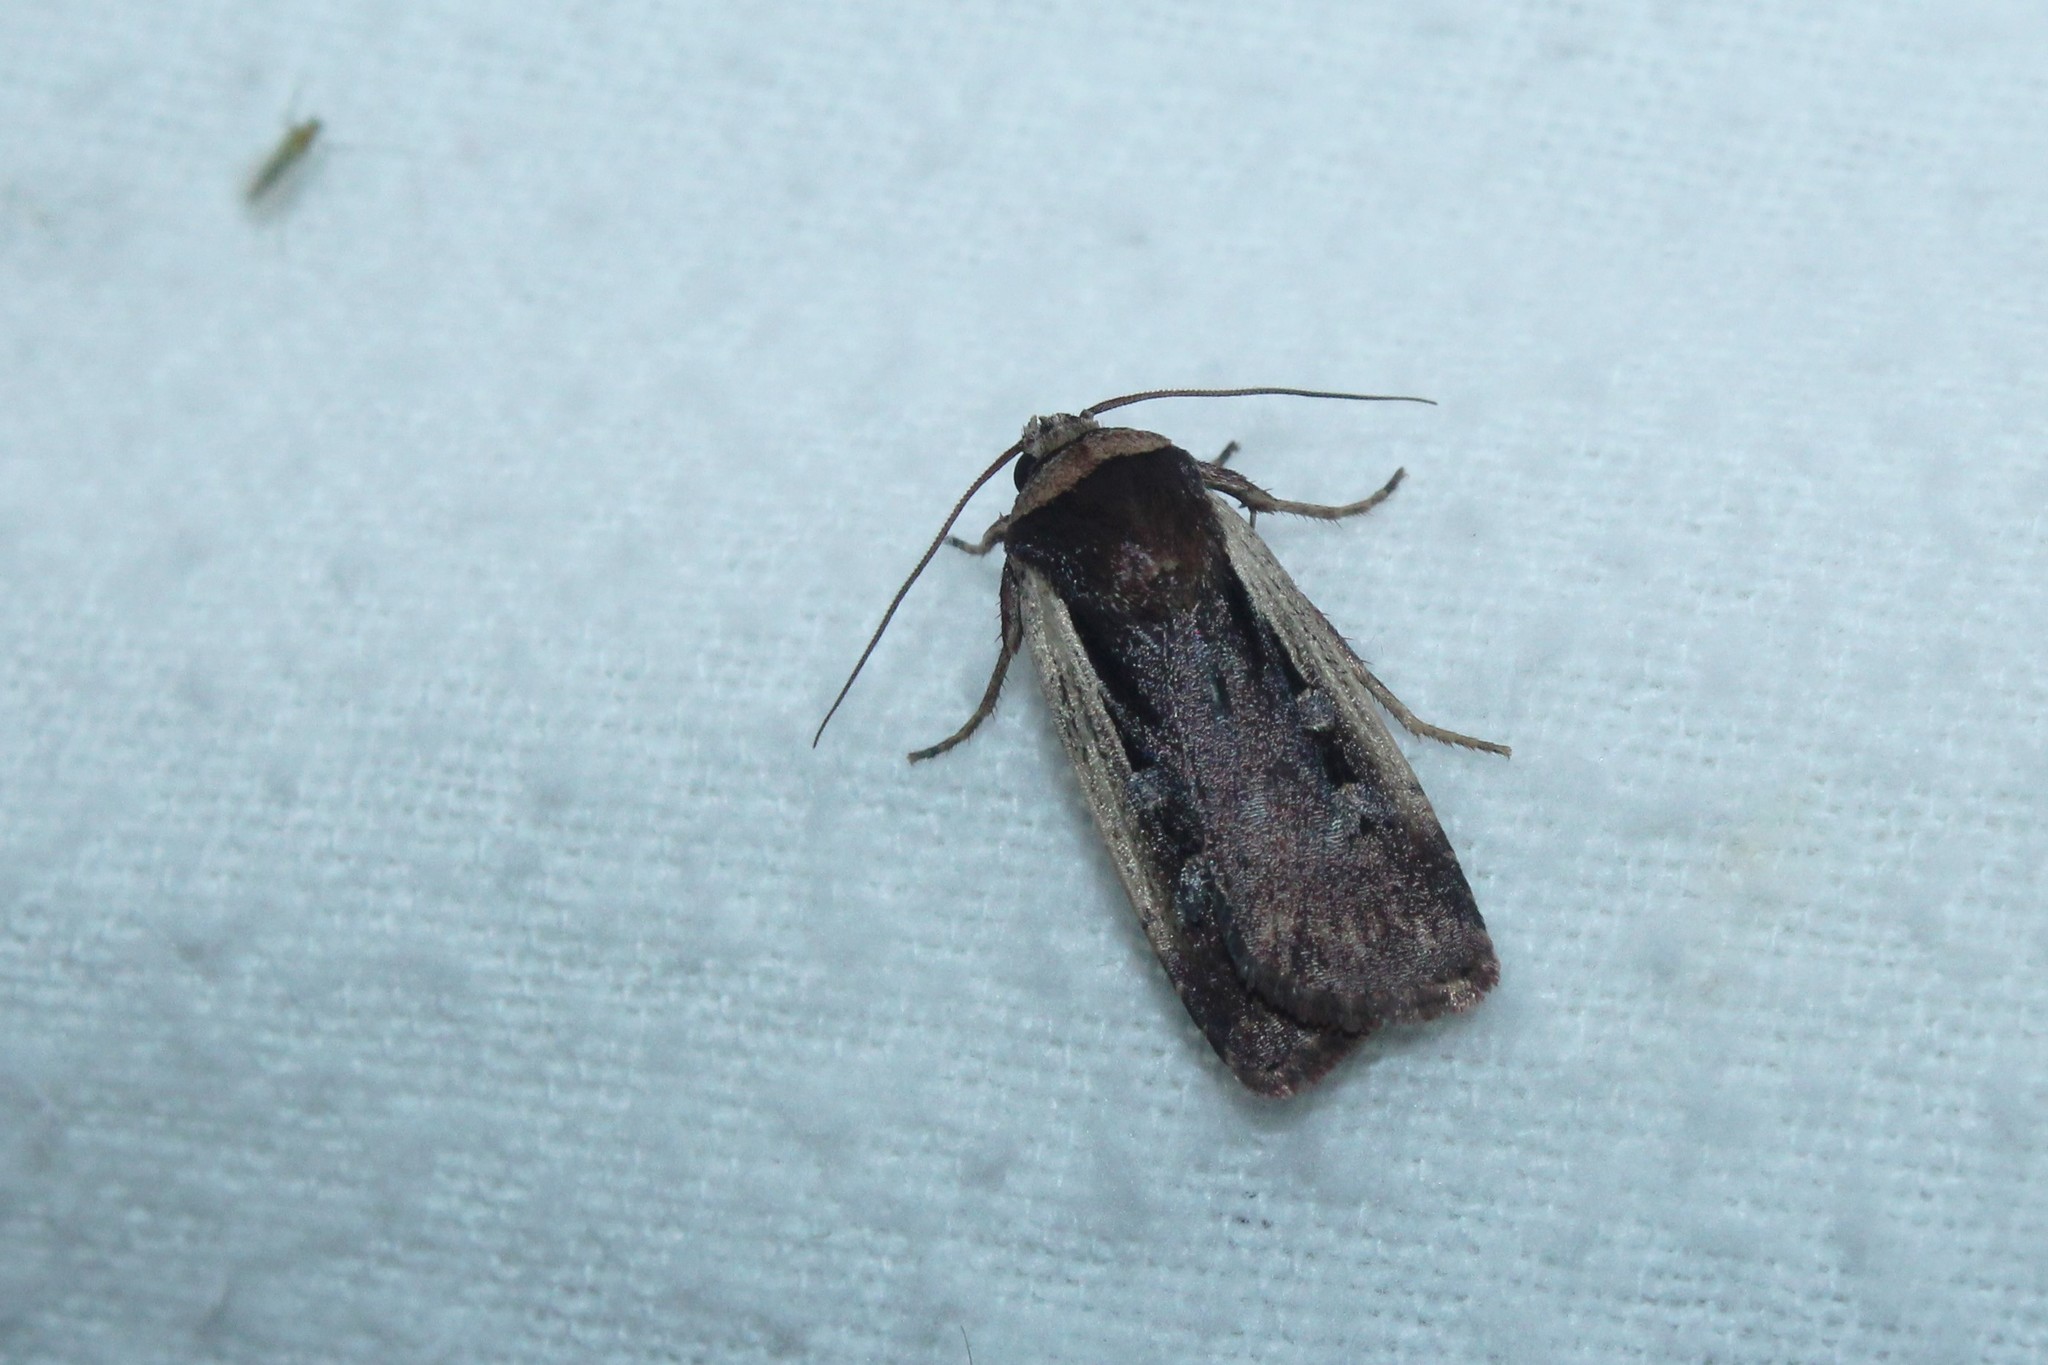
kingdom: Animalia
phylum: Arthropoda
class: Insecta
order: Lepidoptera
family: Noctuidae
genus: Ochropleura
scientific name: Ochropleura implecta
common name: Flame-shouldered dart
